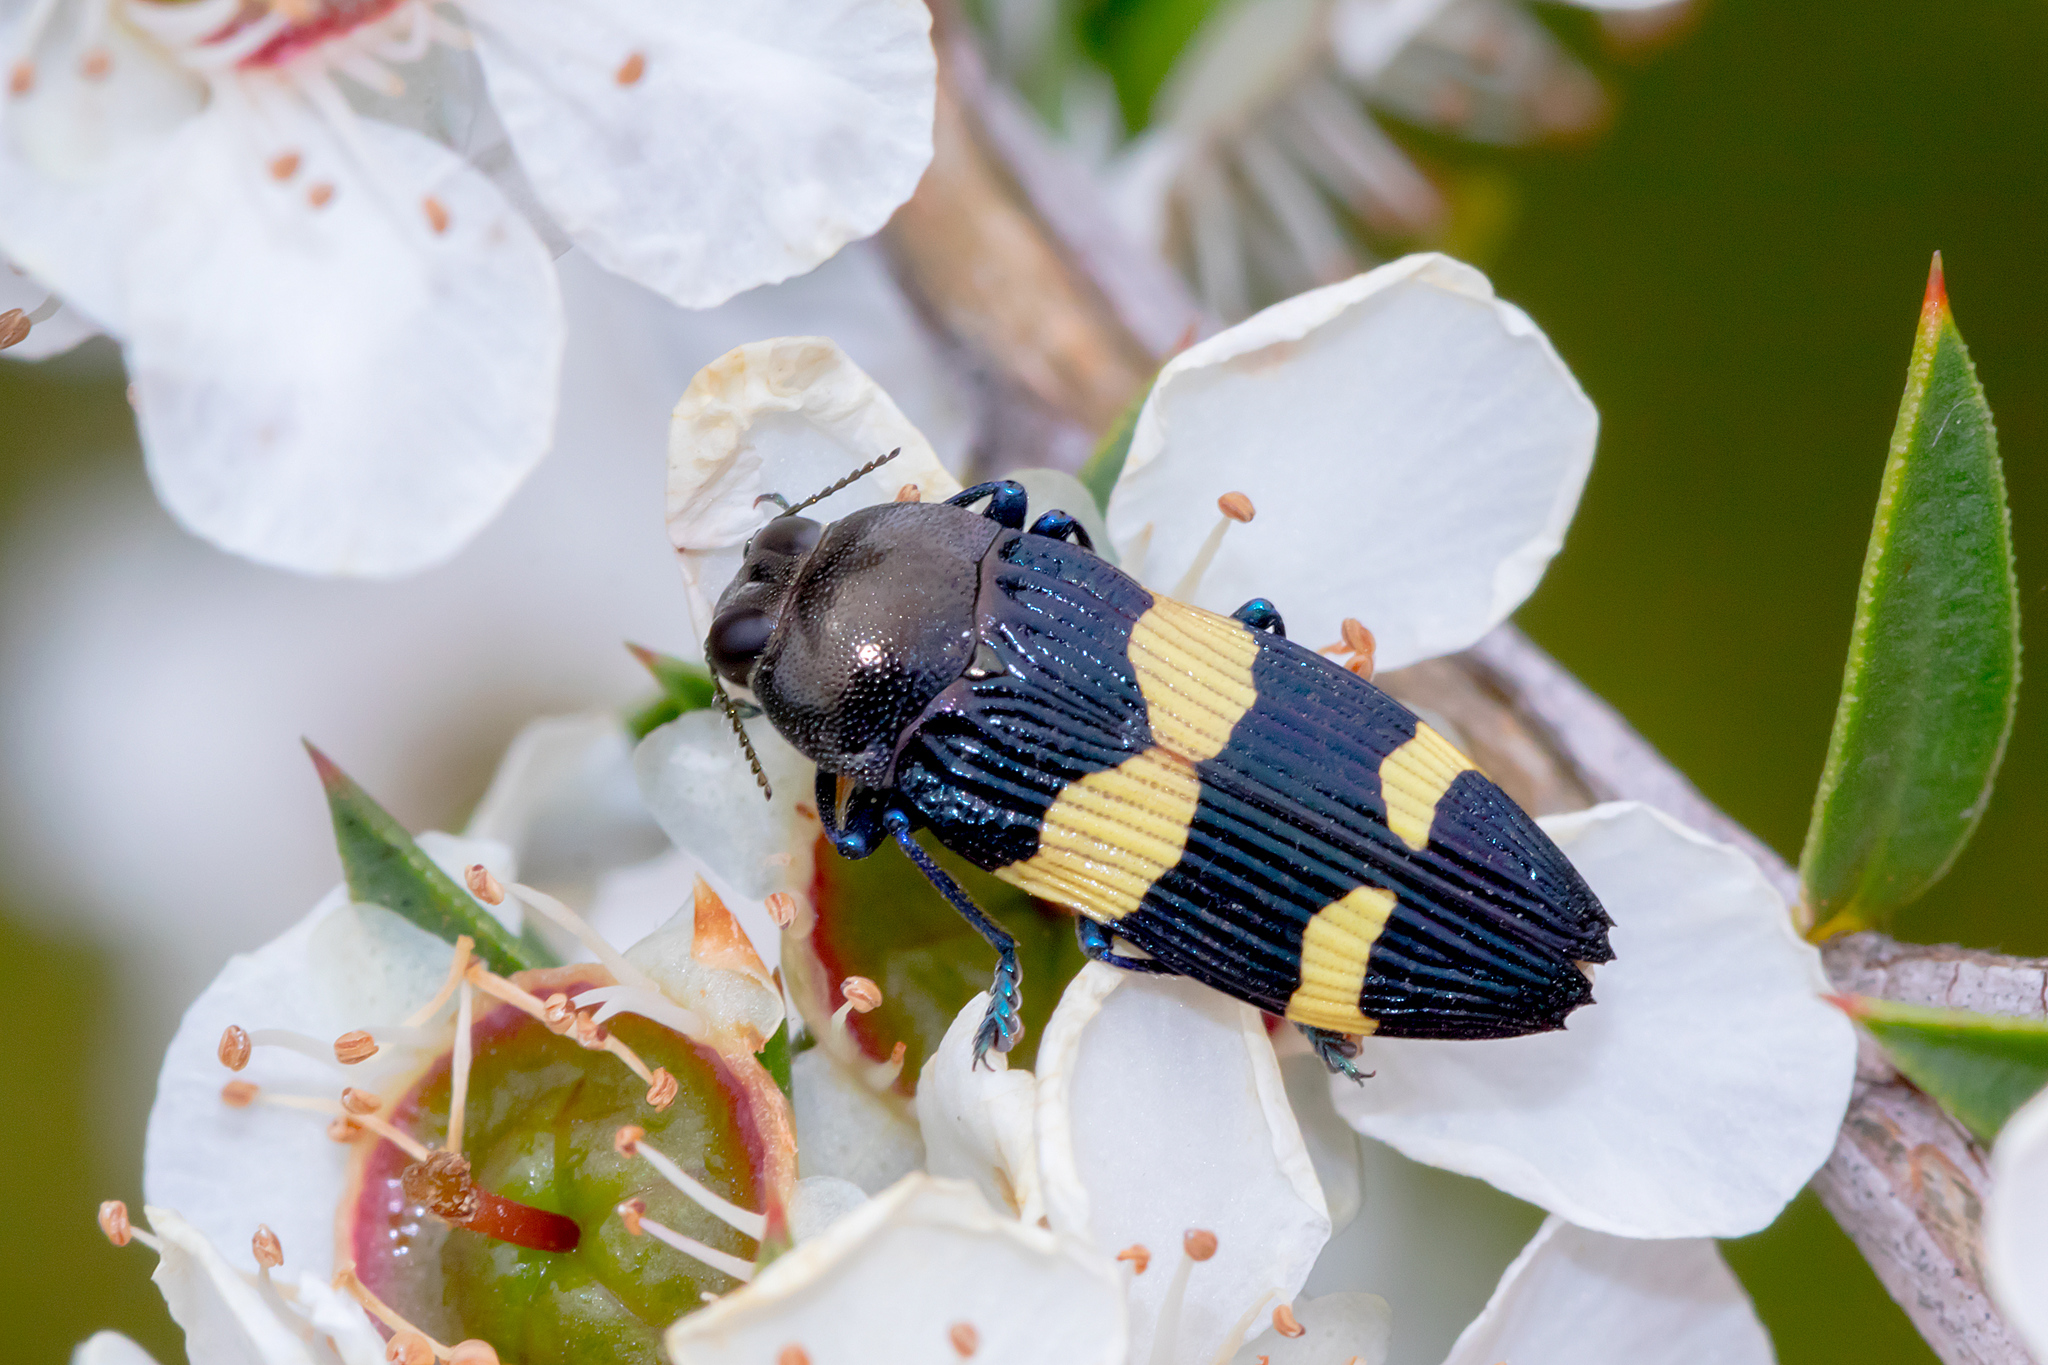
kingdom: Animalia
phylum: Arthropoda
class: Insecta
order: Coleoptera
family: Buprestidae
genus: Castiarina
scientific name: Castiarina bifasciata
